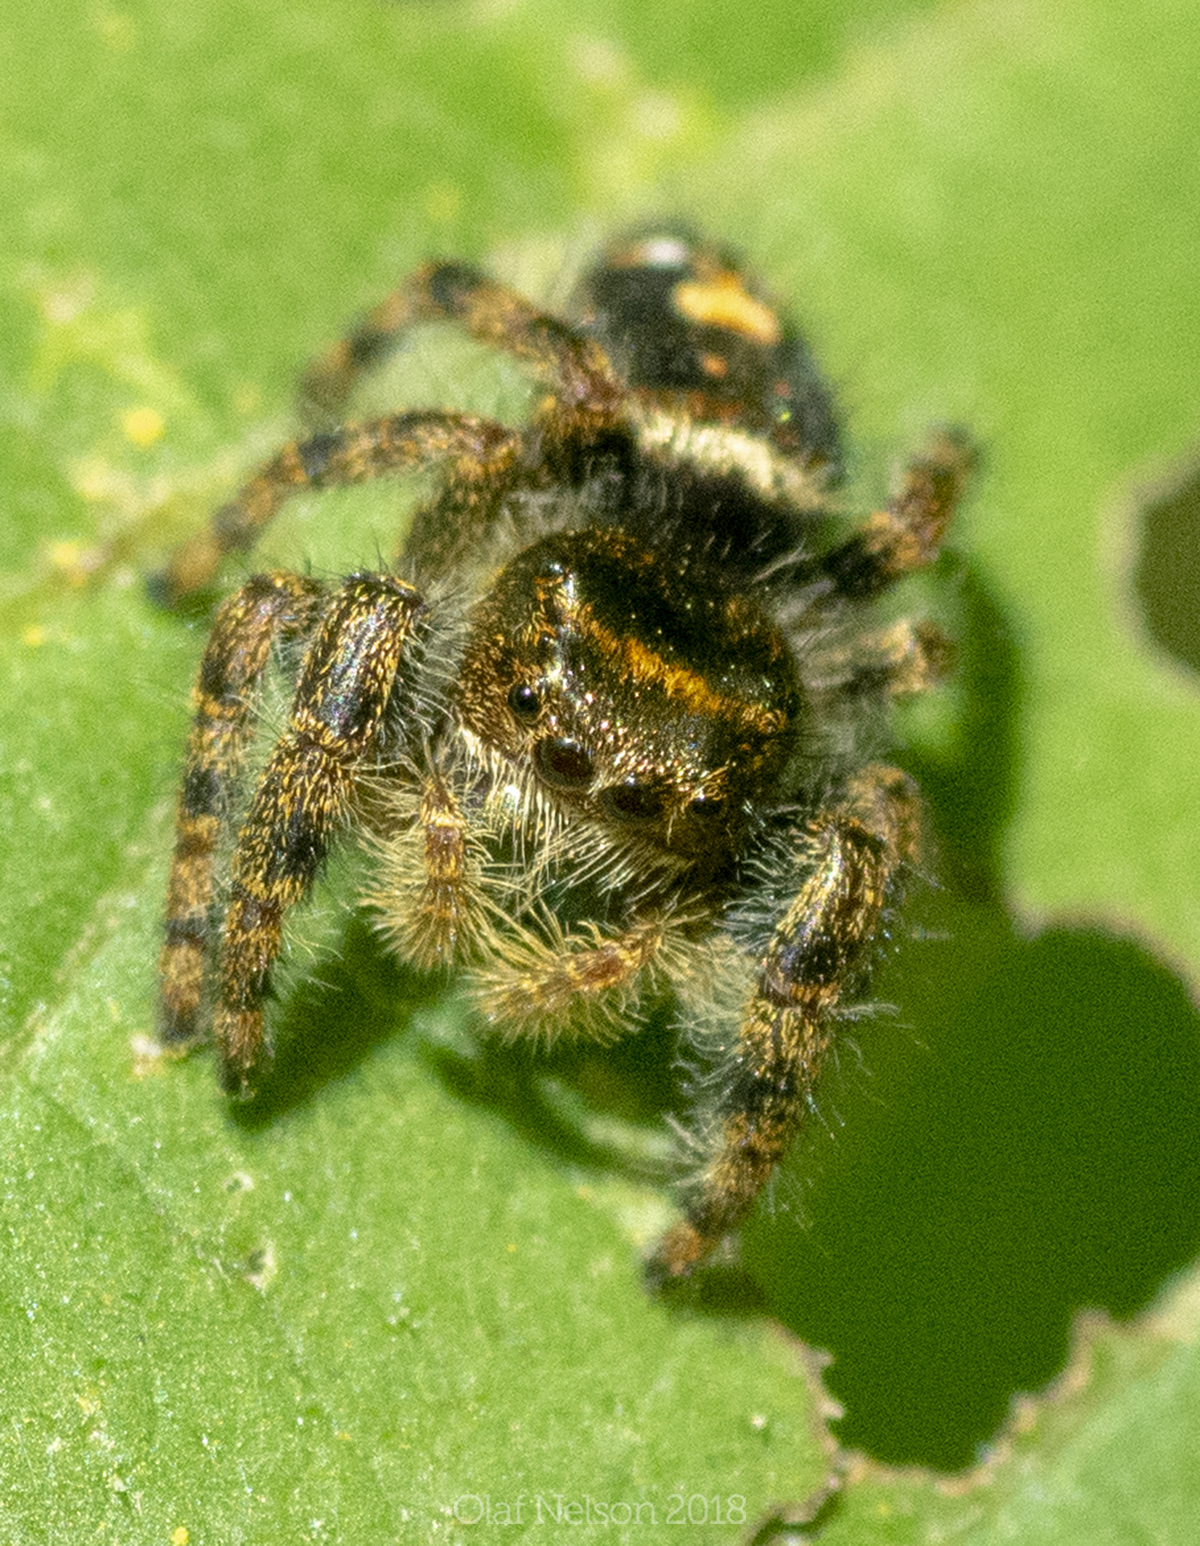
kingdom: Animalia
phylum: Arthropoda
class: Arachnida
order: Araneae
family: Salticidae
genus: Phidippus
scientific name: Phidippus audax
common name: Bold jumper
